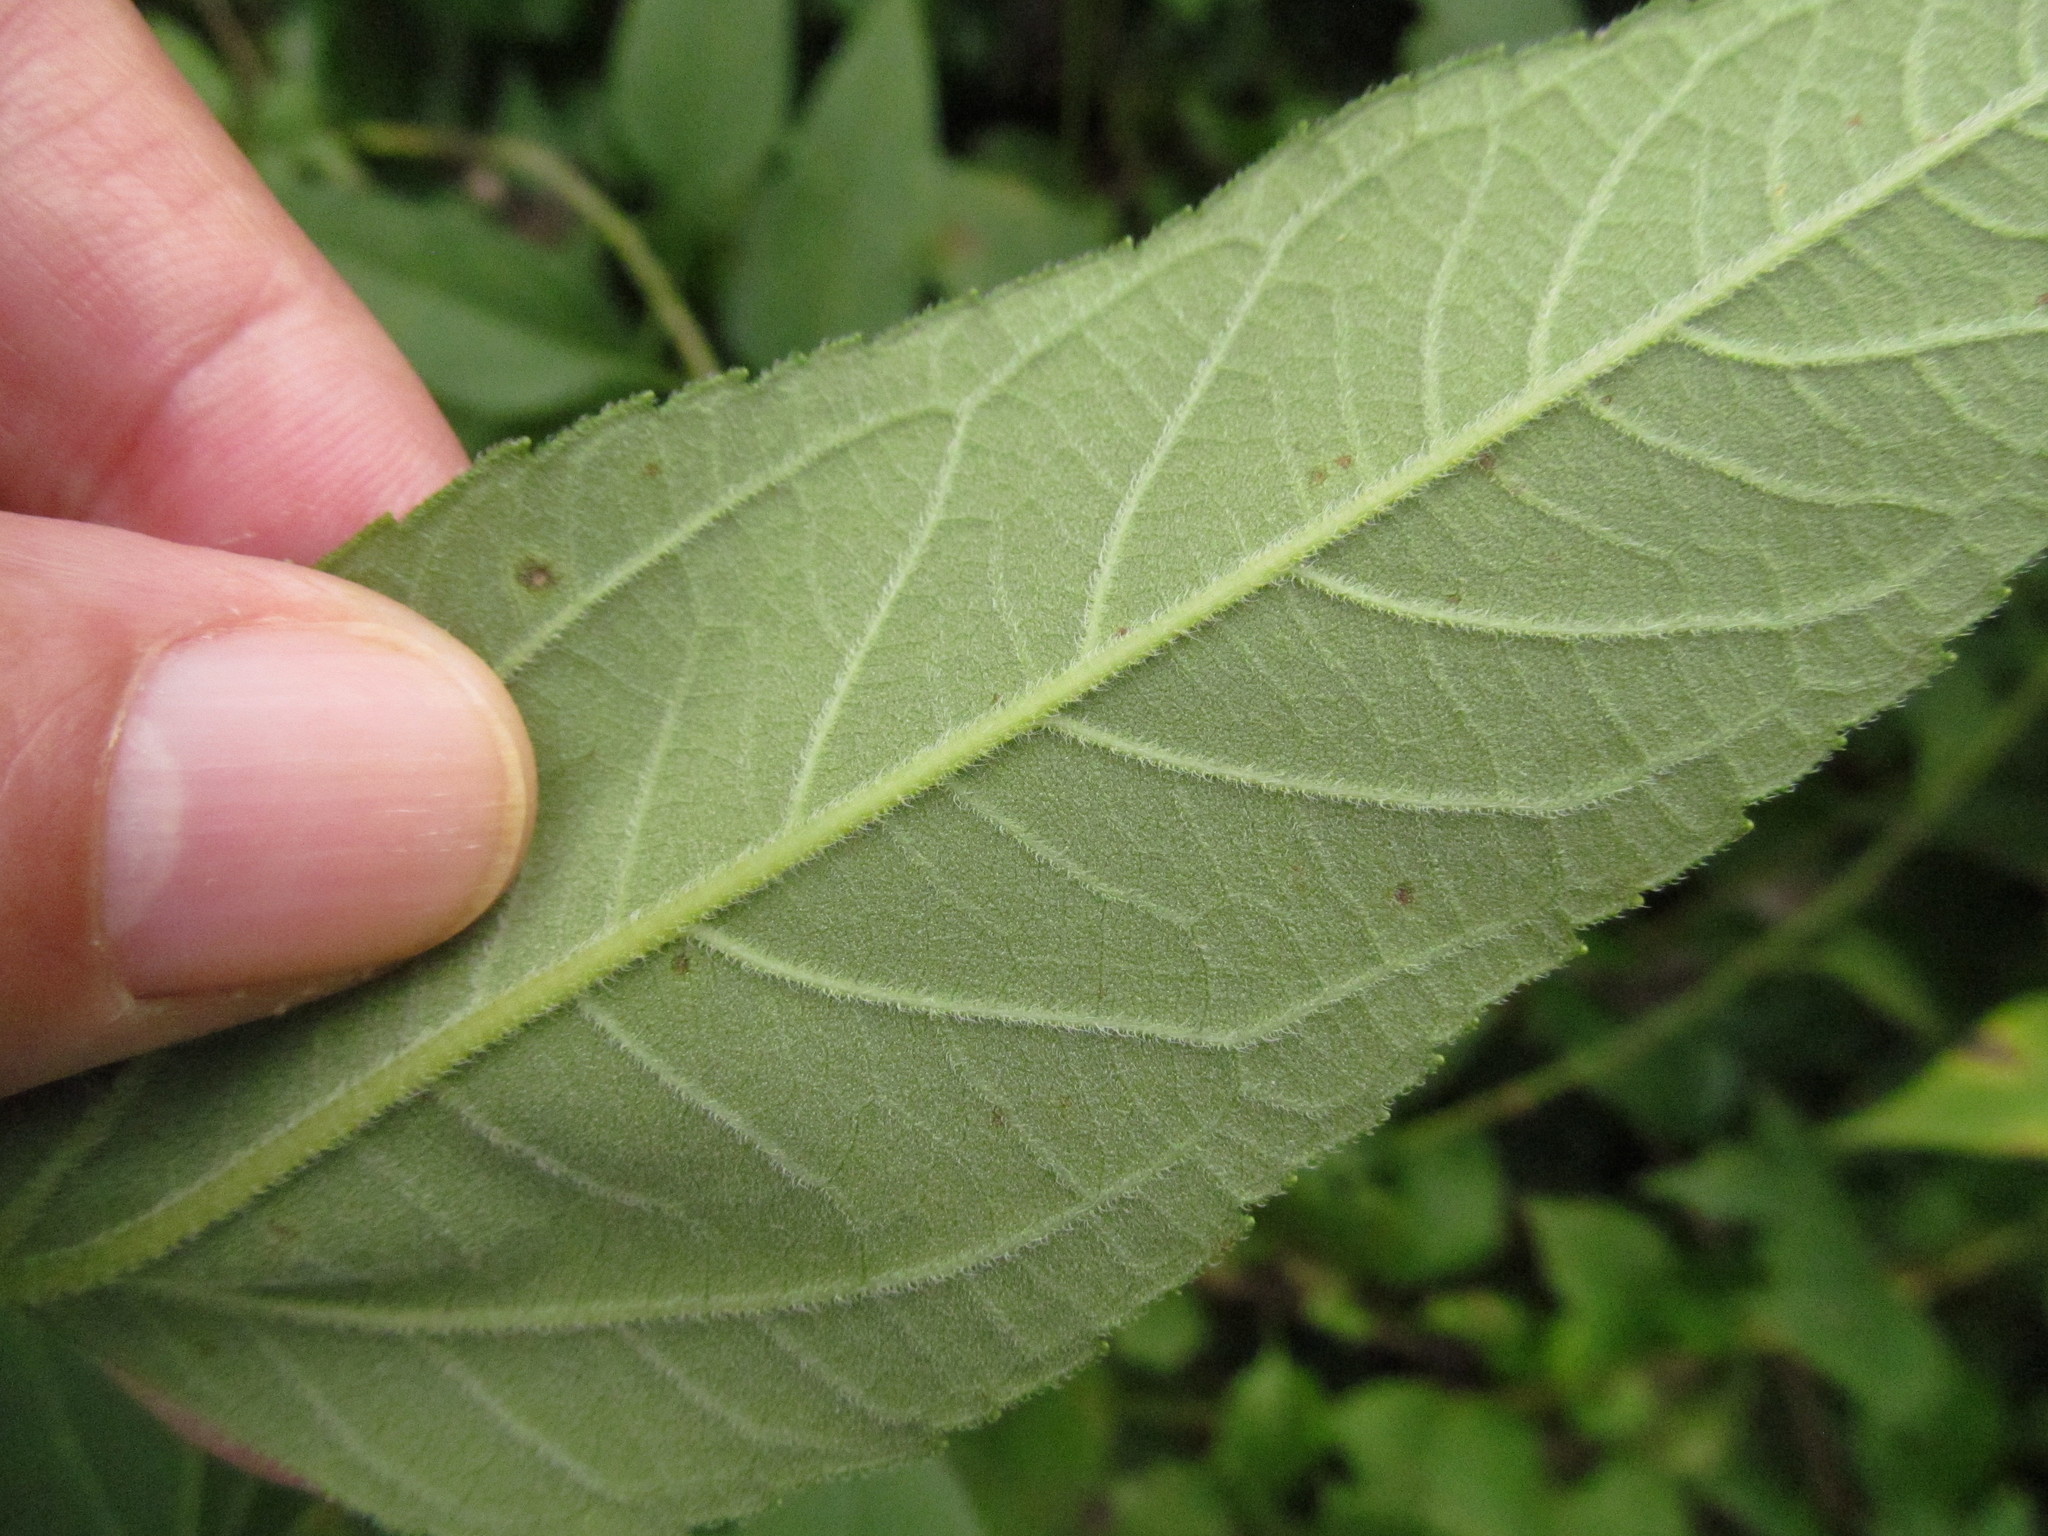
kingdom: Plantae
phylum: Tracheophyta
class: Magnoliopsida
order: Asterales
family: Asteraceae
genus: Helianthus
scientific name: Helianthus tuberosus
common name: Jerusalem artichoke
